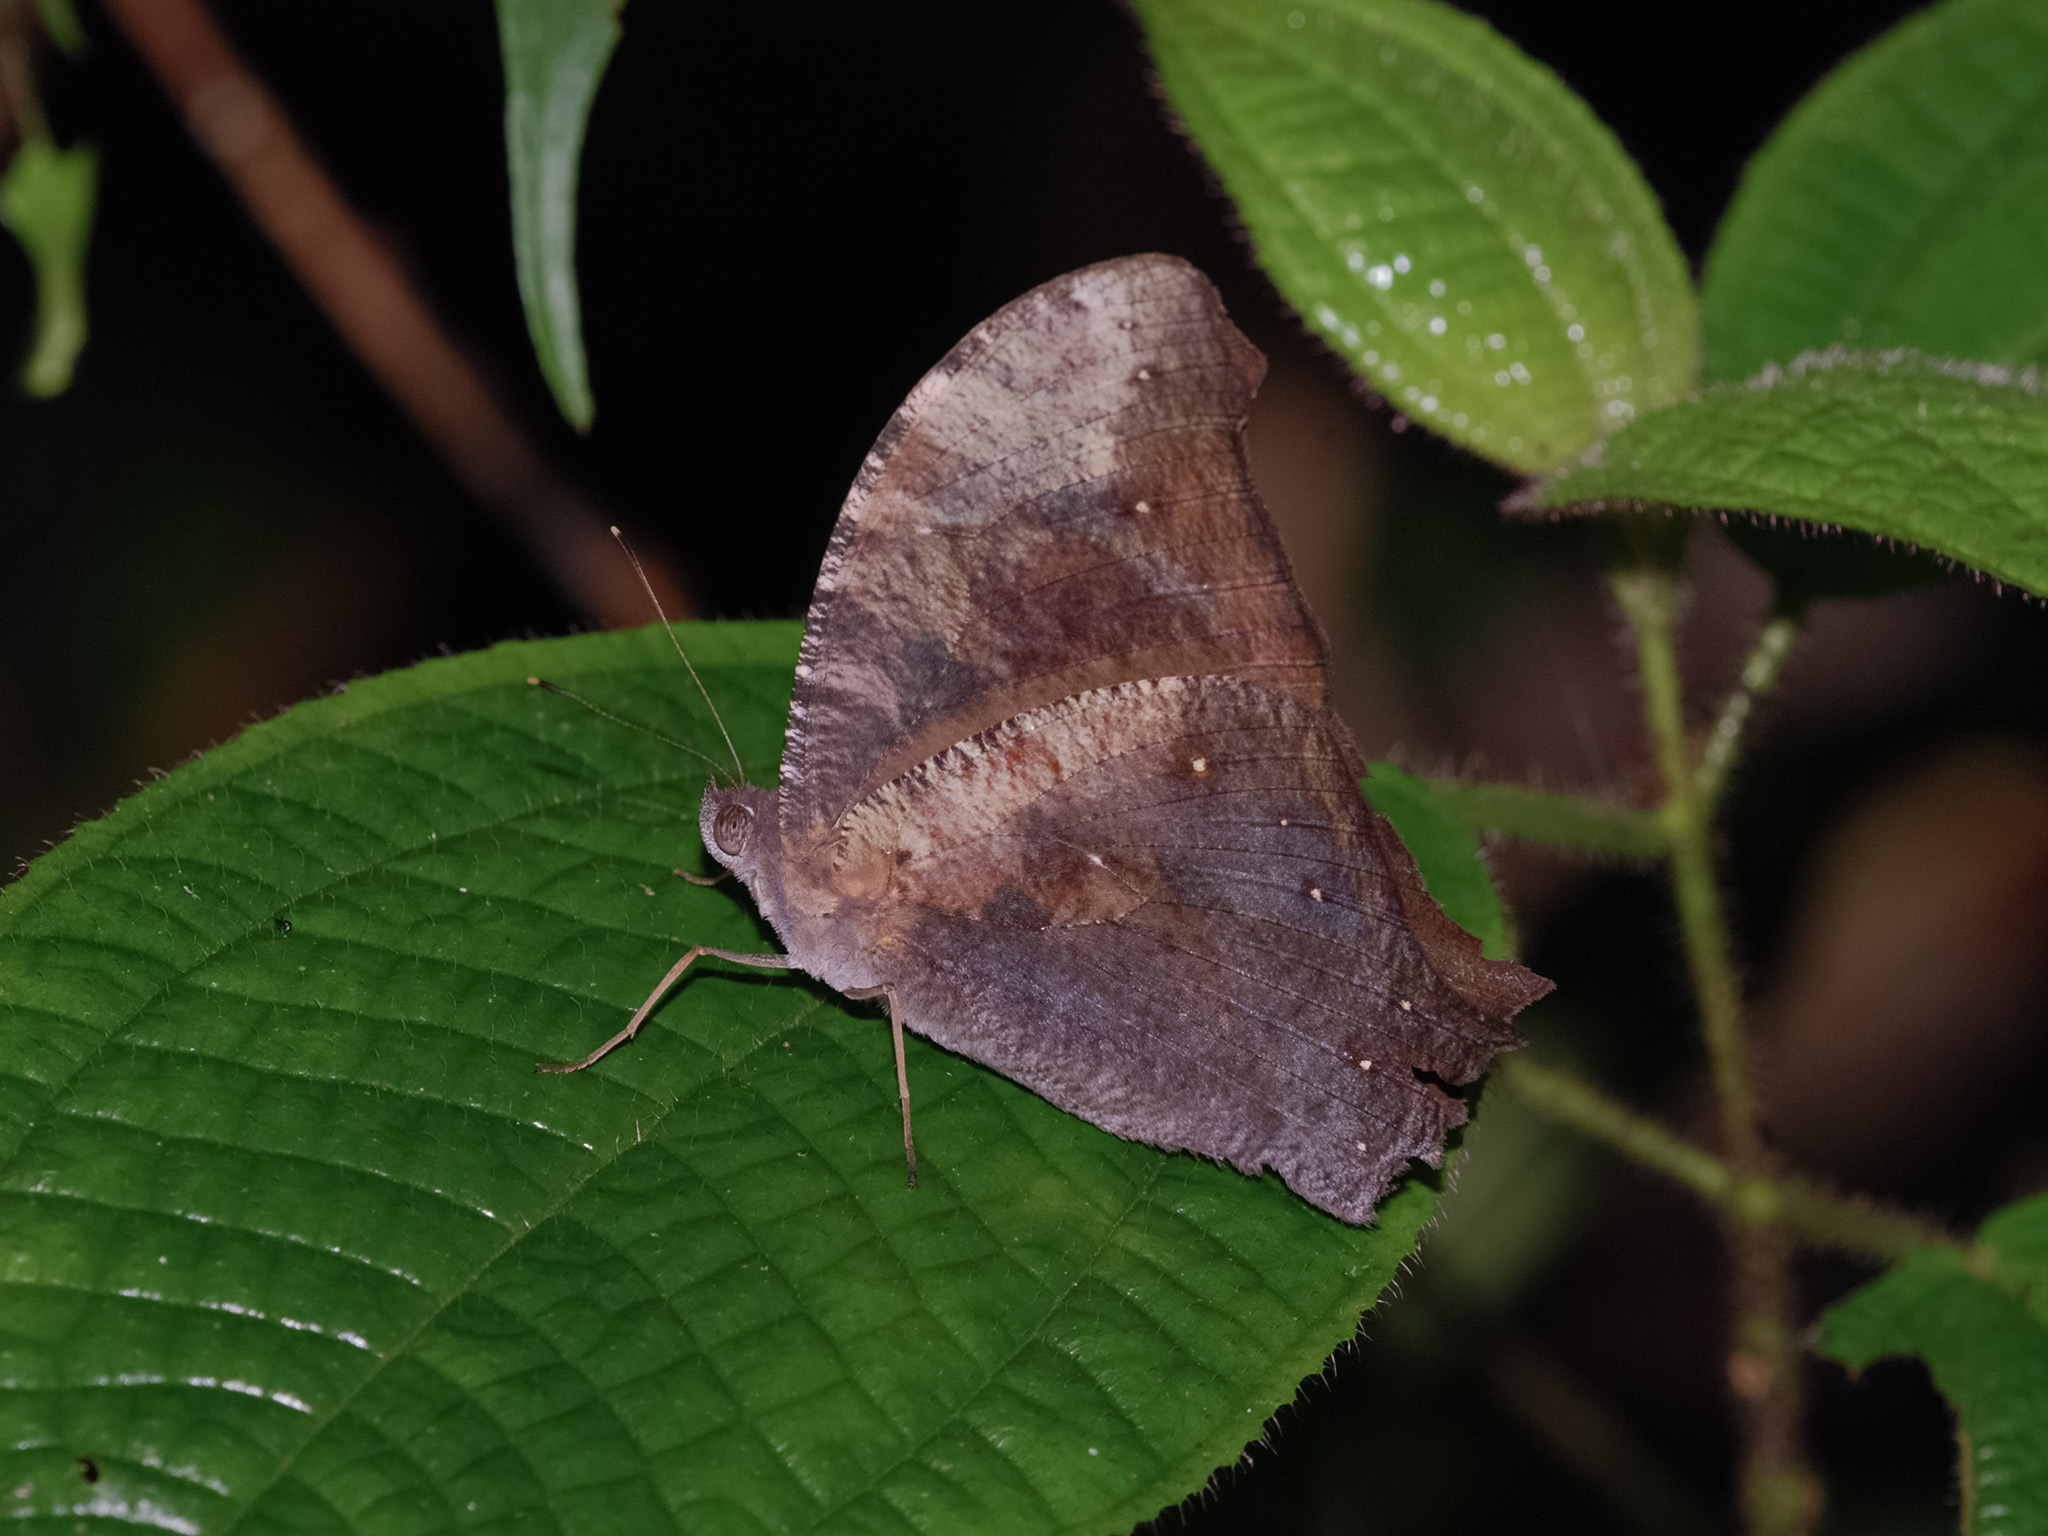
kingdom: Animalia
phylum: Arthropoda
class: Insecta
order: Lepidoptera
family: Nymphalidae
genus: Melanitis
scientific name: Melanitis phedima
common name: Dark evening brown
